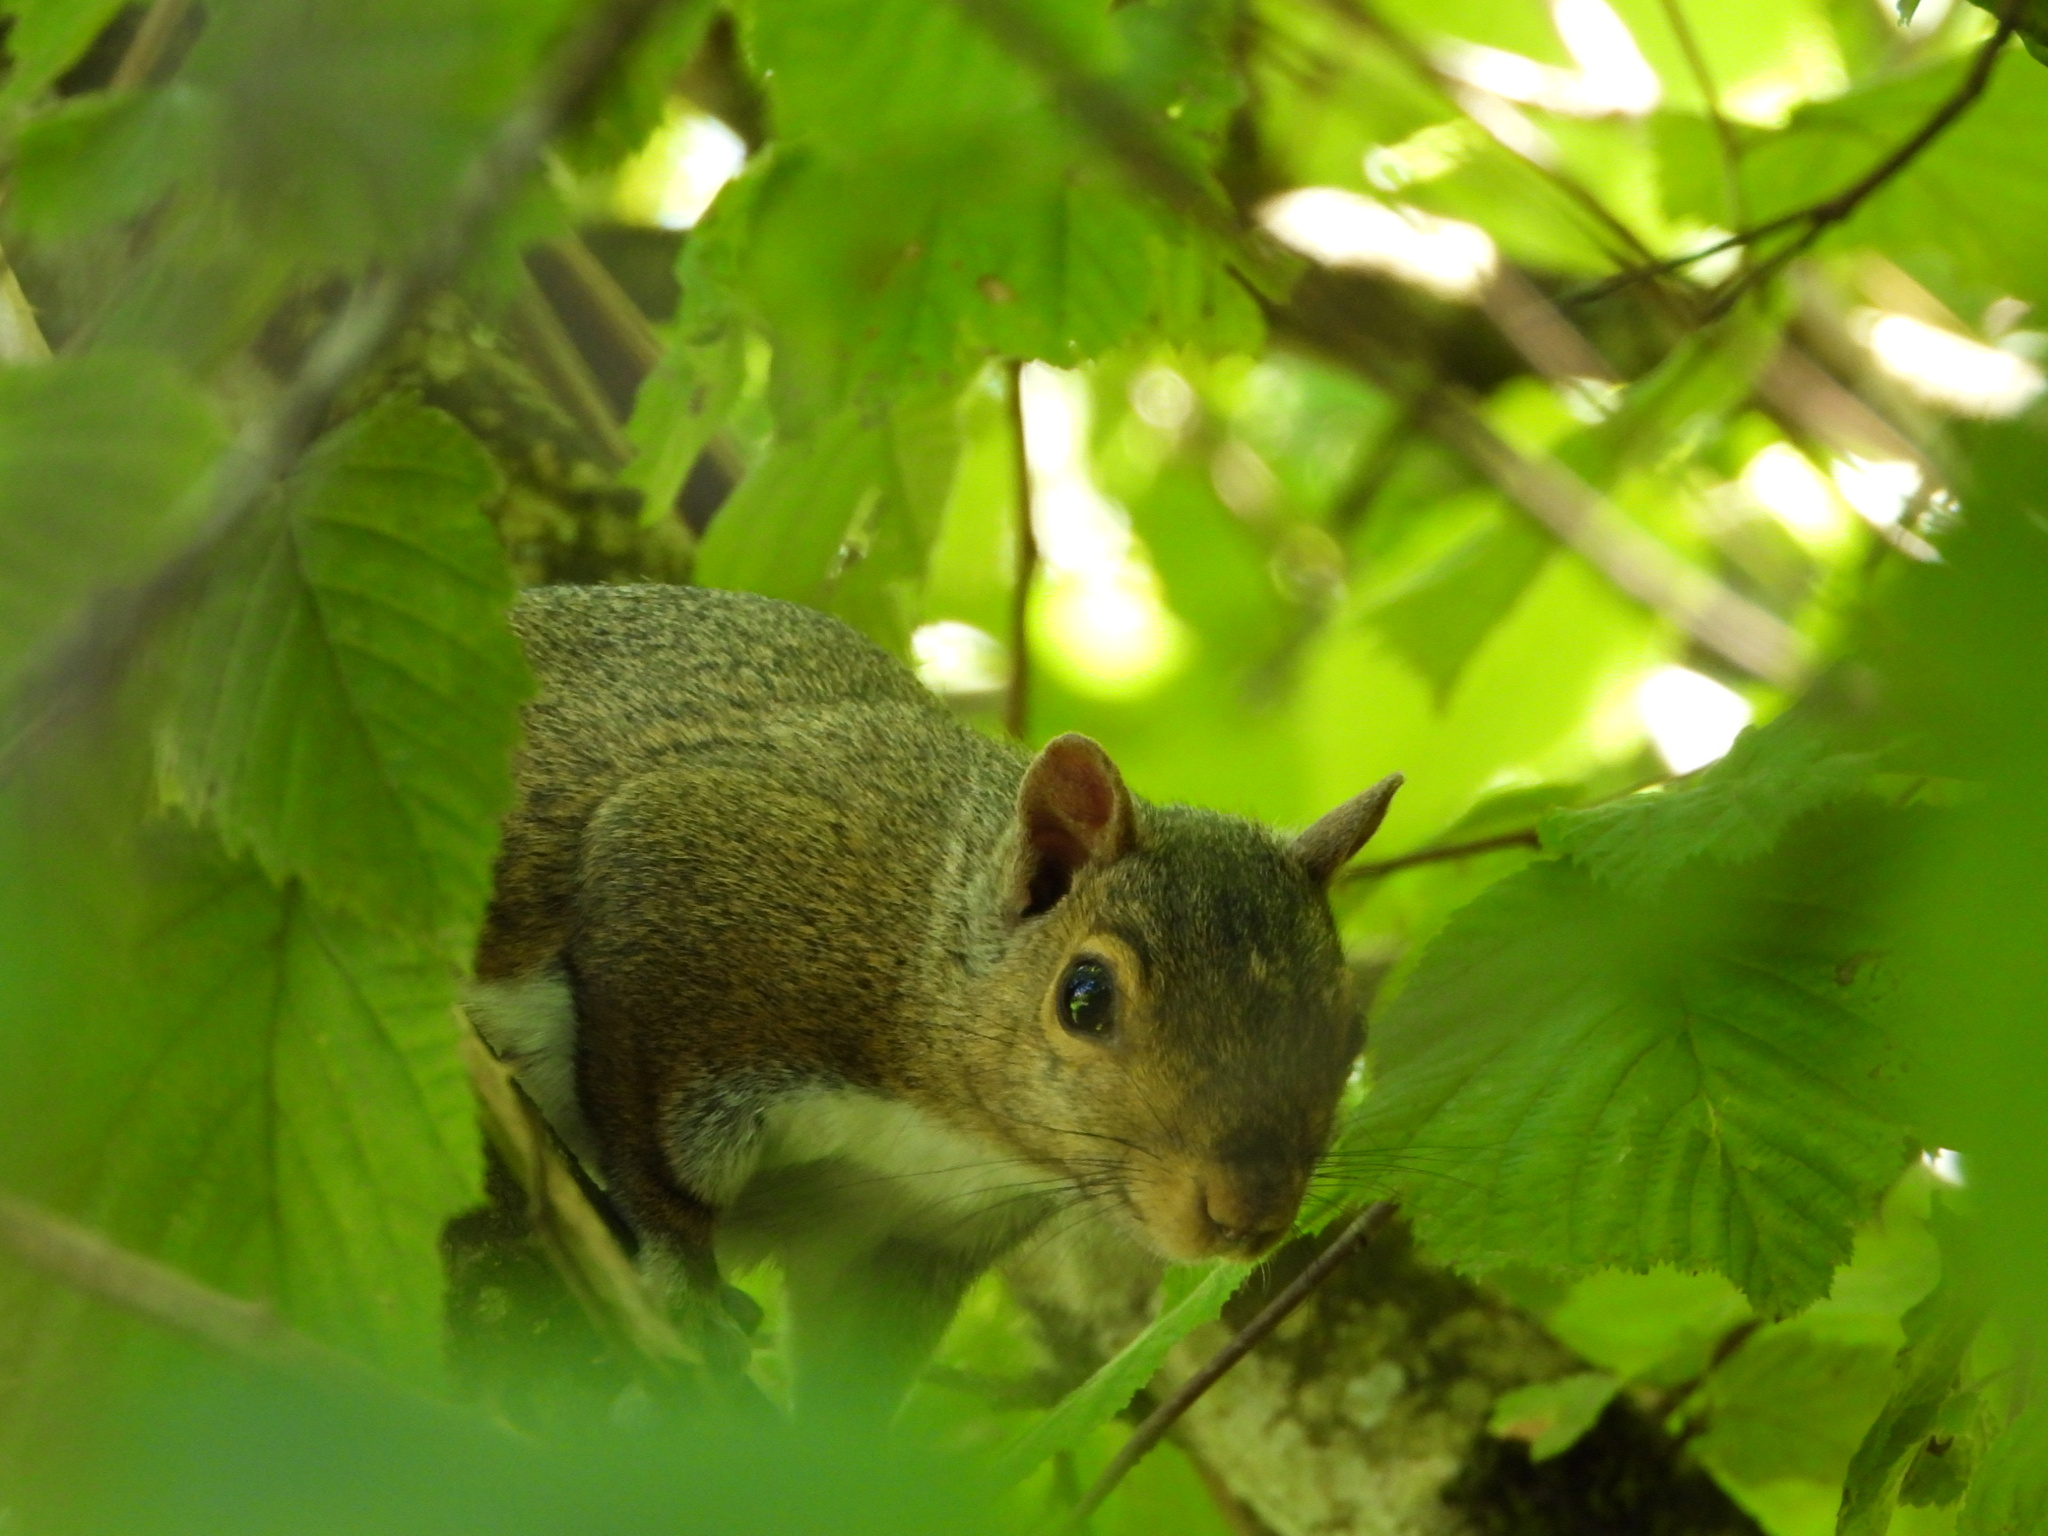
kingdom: Animalia
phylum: Chordata
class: Mammalia
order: Rodentia
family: Sciuridae
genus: Sciurus
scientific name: Sciurus carolinensis
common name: Eastern gray squirrel
